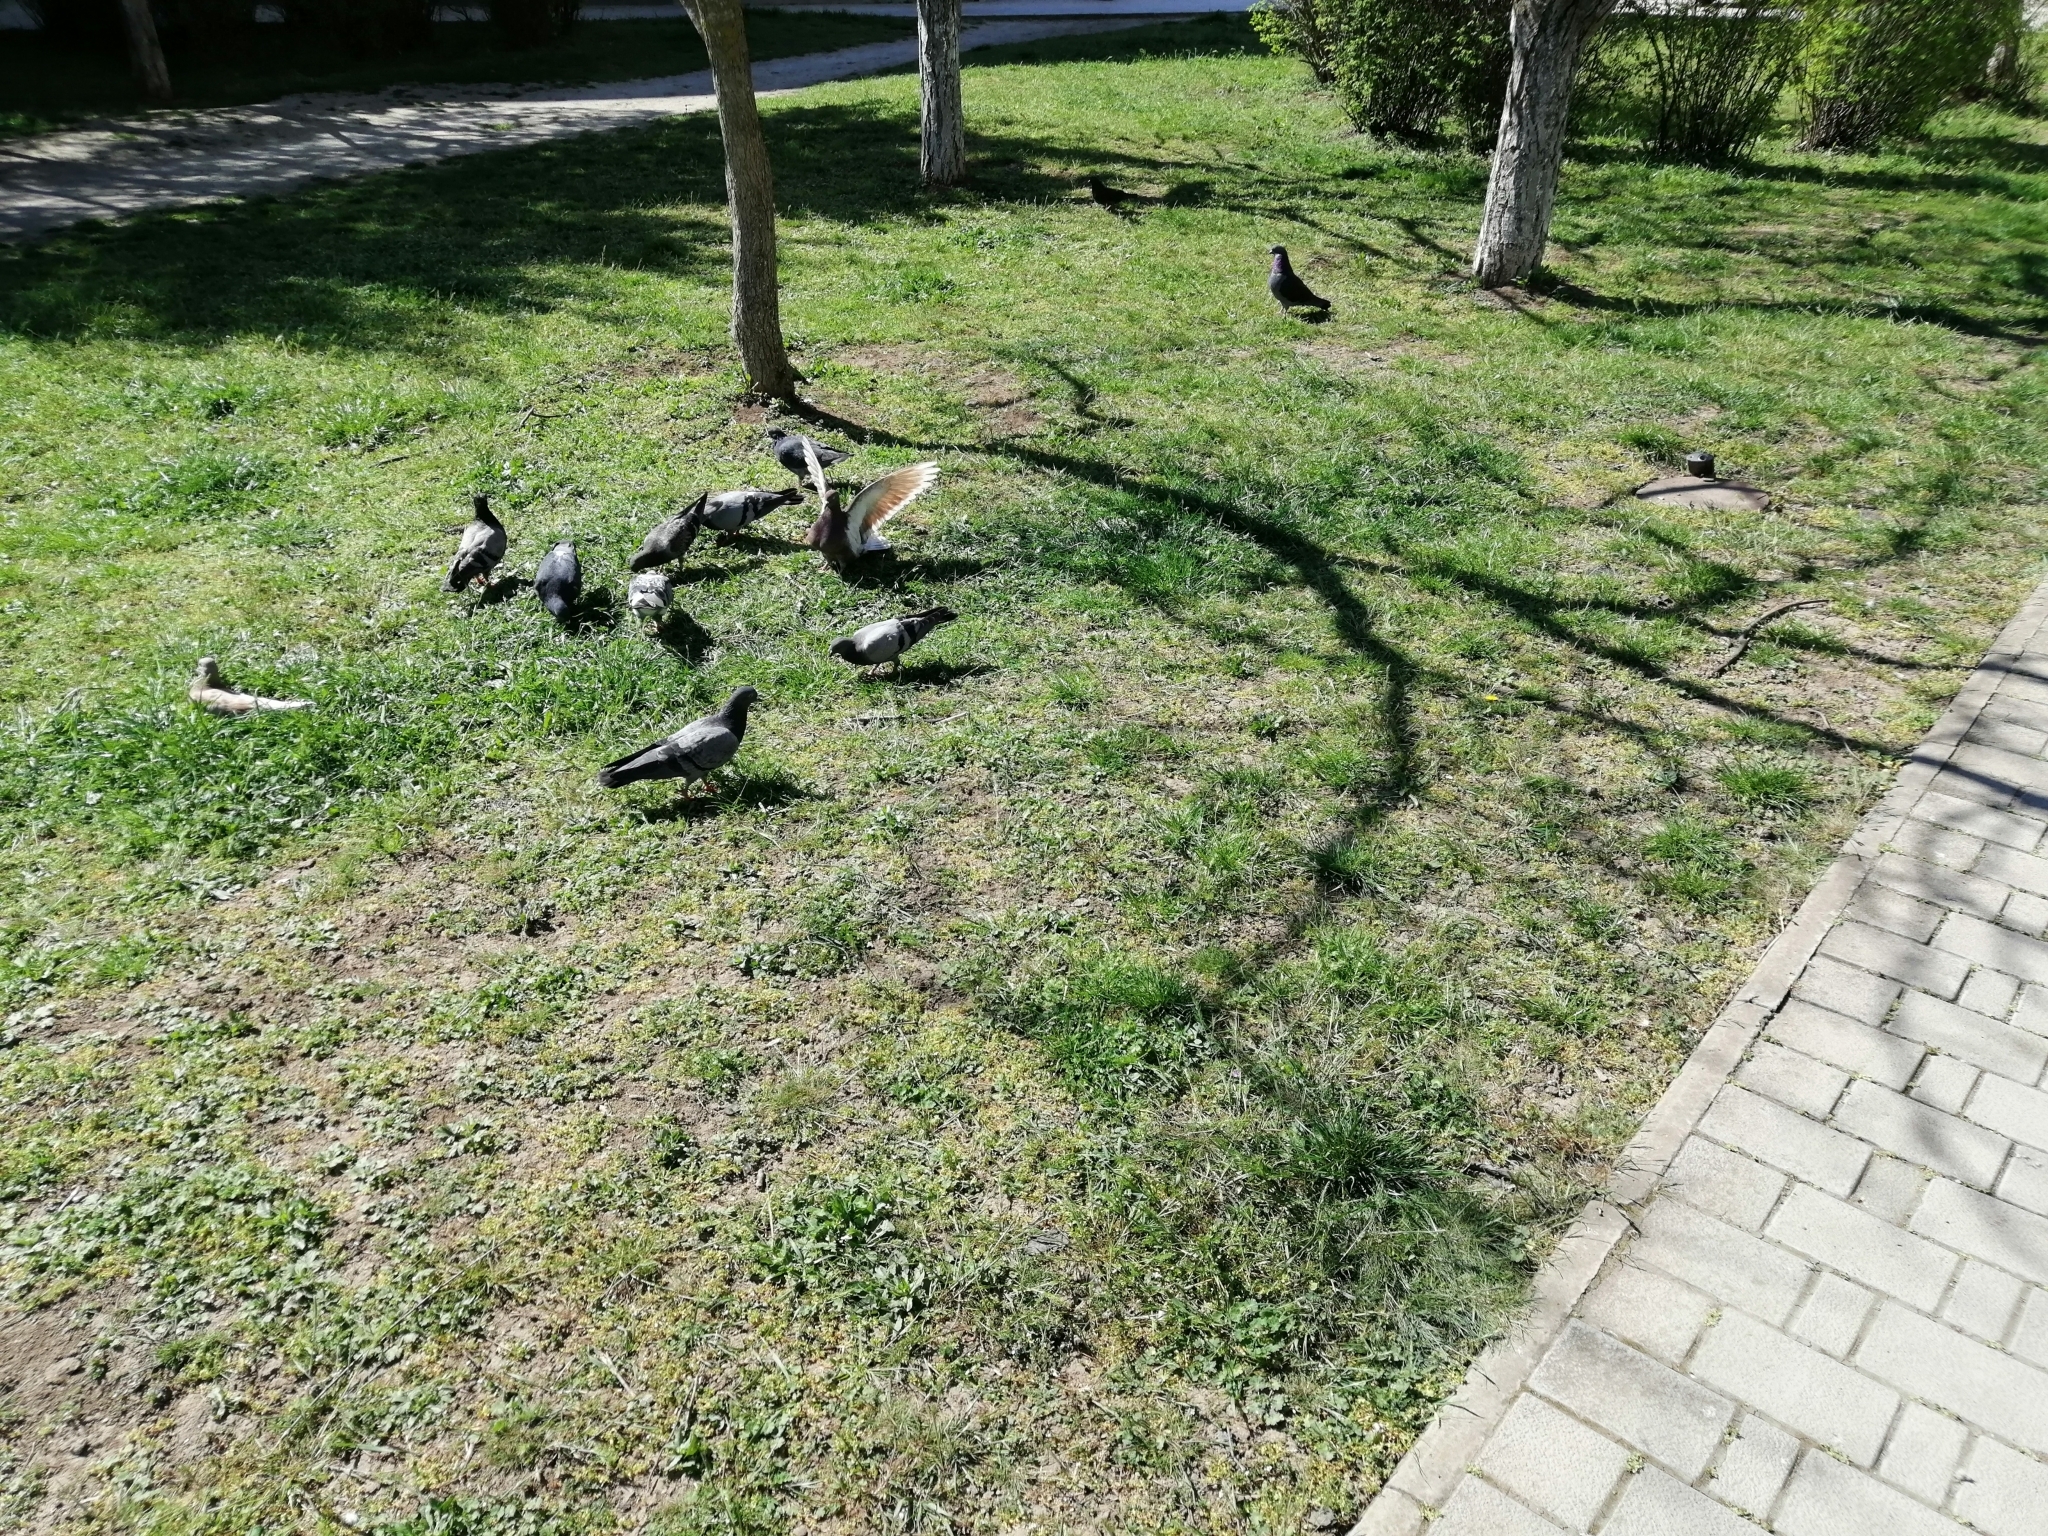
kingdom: Animalia
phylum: Chordata
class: Aves
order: Columbiformes
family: Columbidae
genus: Columba
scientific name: Columba livia
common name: Rock pigeon
